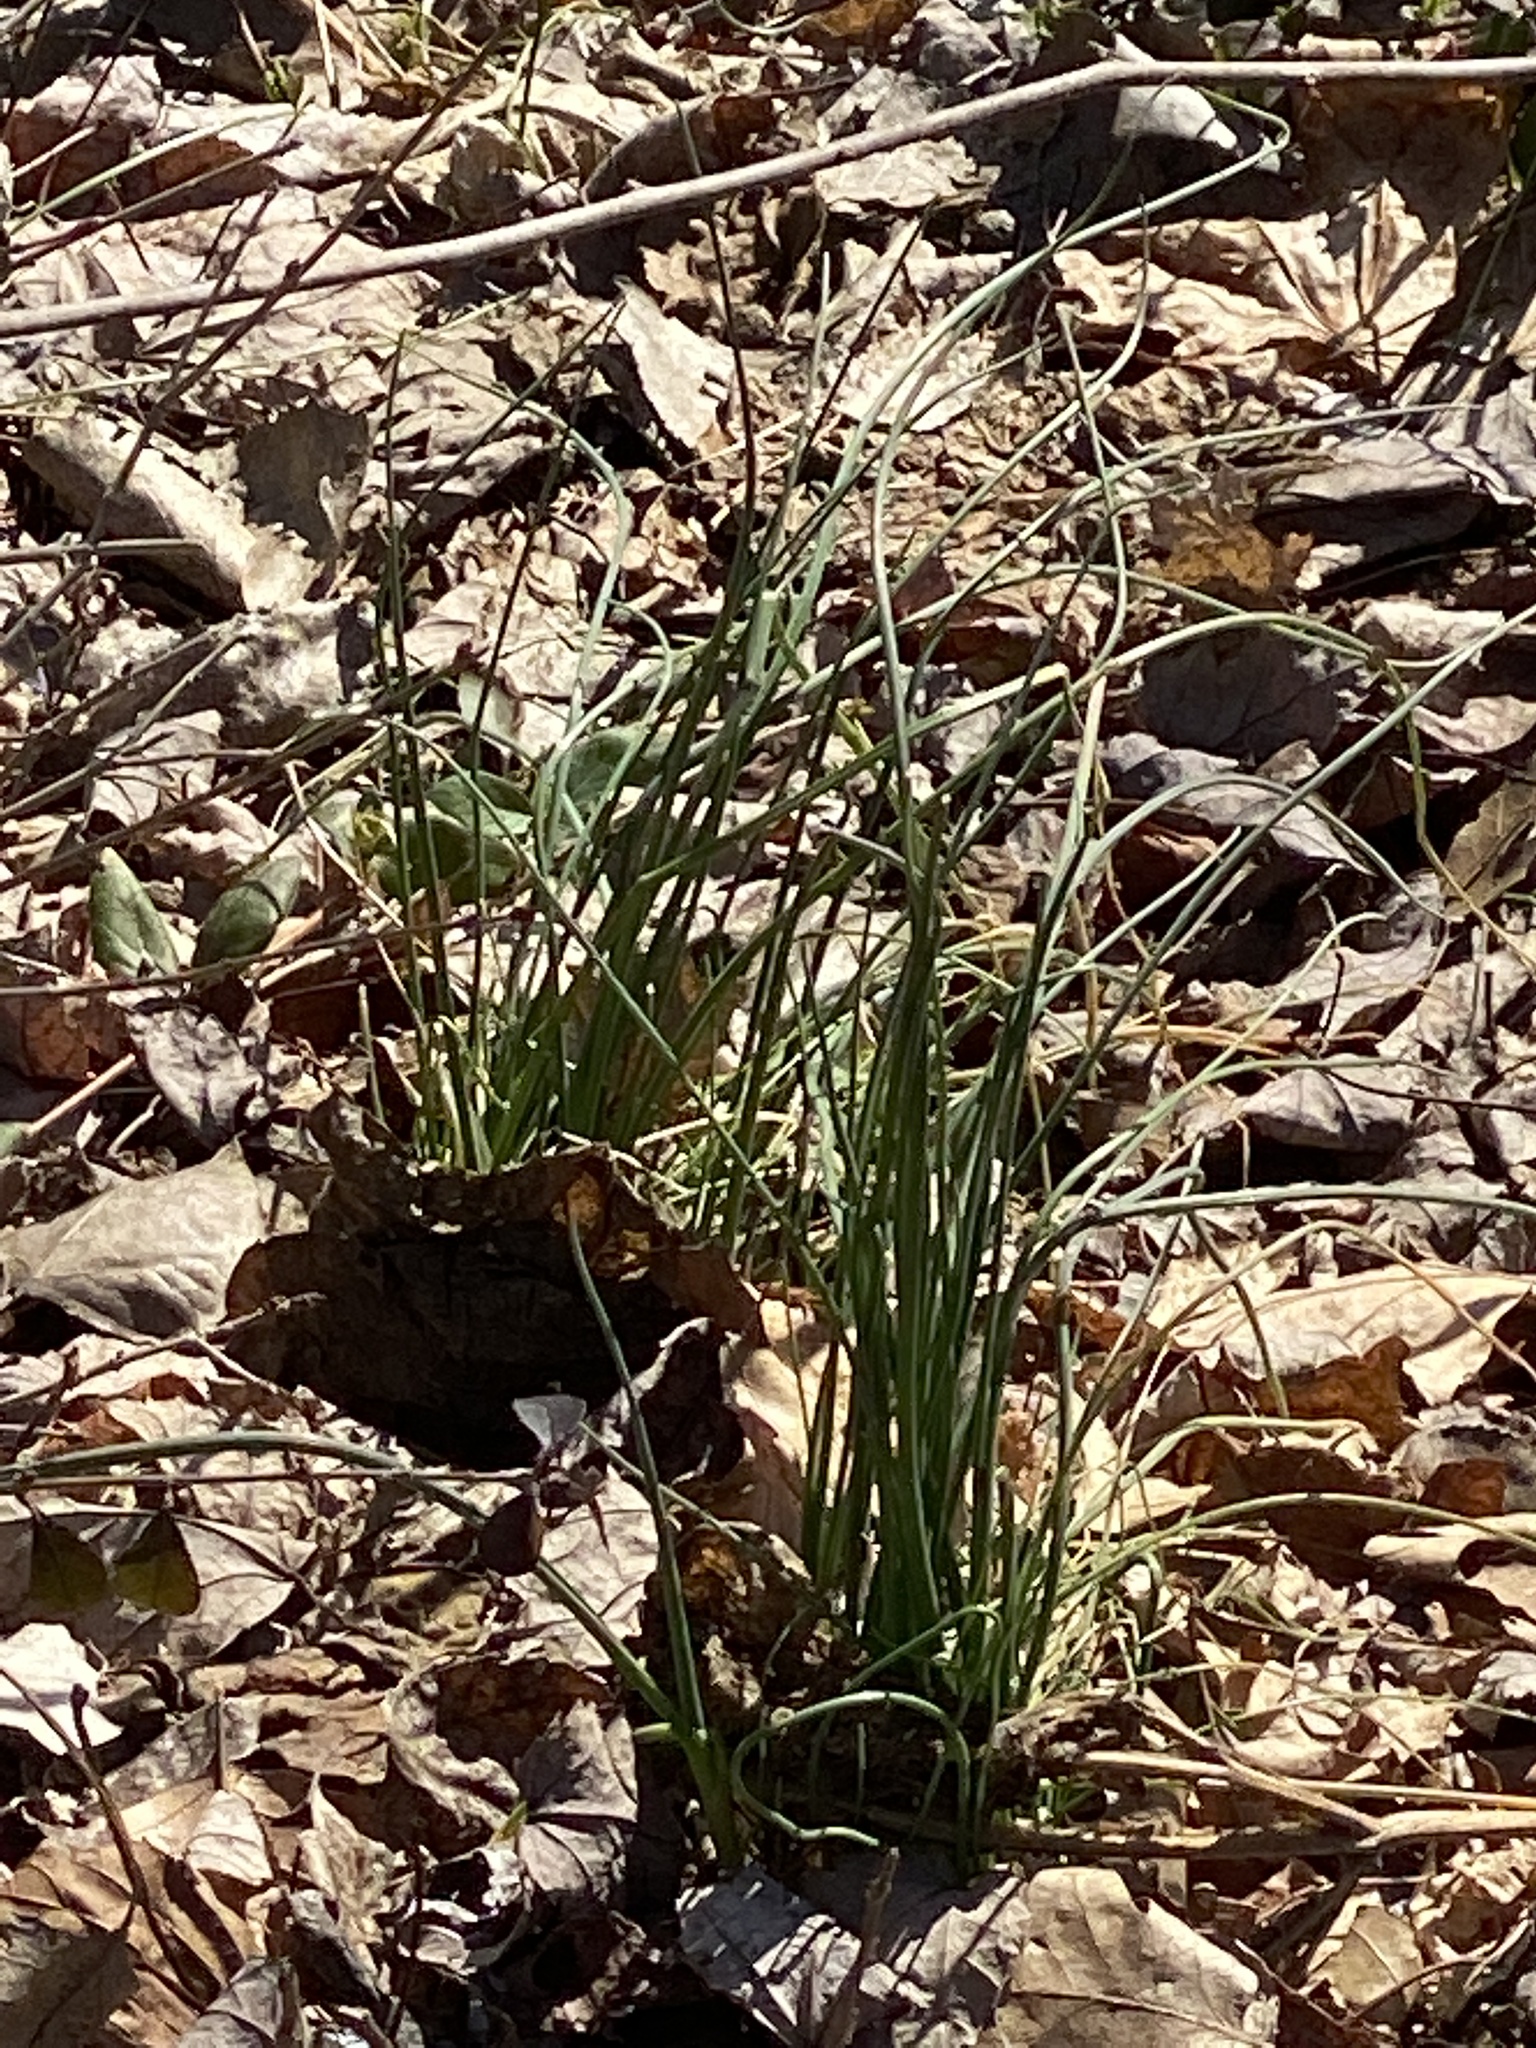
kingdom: Plantae
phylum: Tracheophyta
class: Liliopsida
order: Asparagales
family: Amaryllidaceae
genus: Allium
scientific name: Allium vineale
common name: Crow garlic
